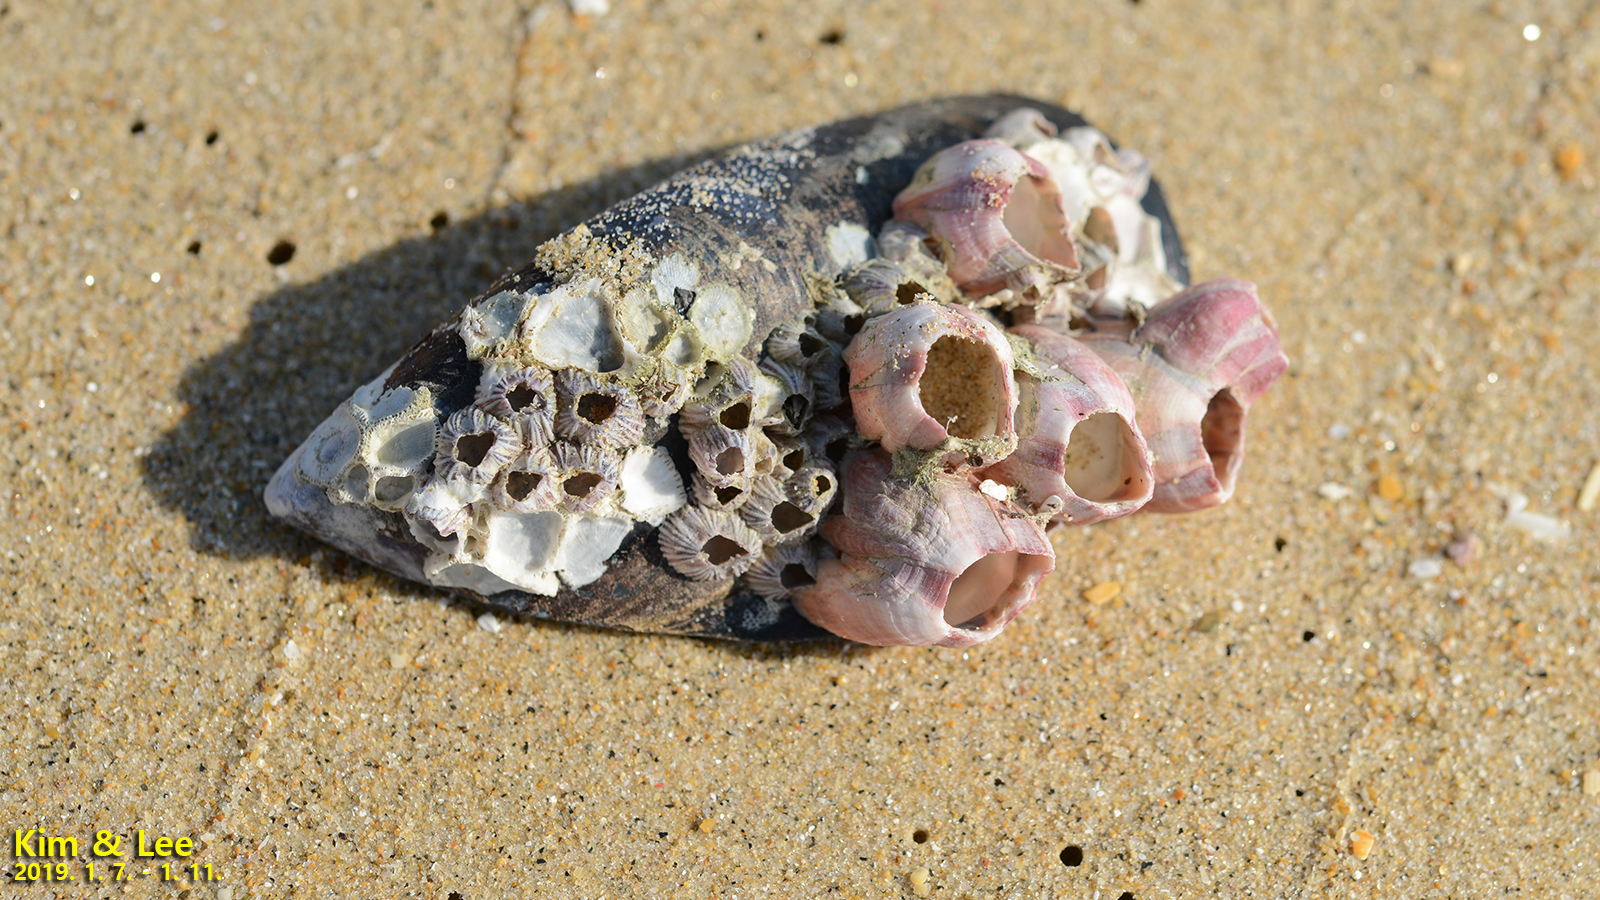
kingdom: Animalia
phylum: Arthropoda
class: Maxillopoda
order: Sessilia
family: Balanidae
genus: Megabalanus
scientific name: Megabalanus rosa
